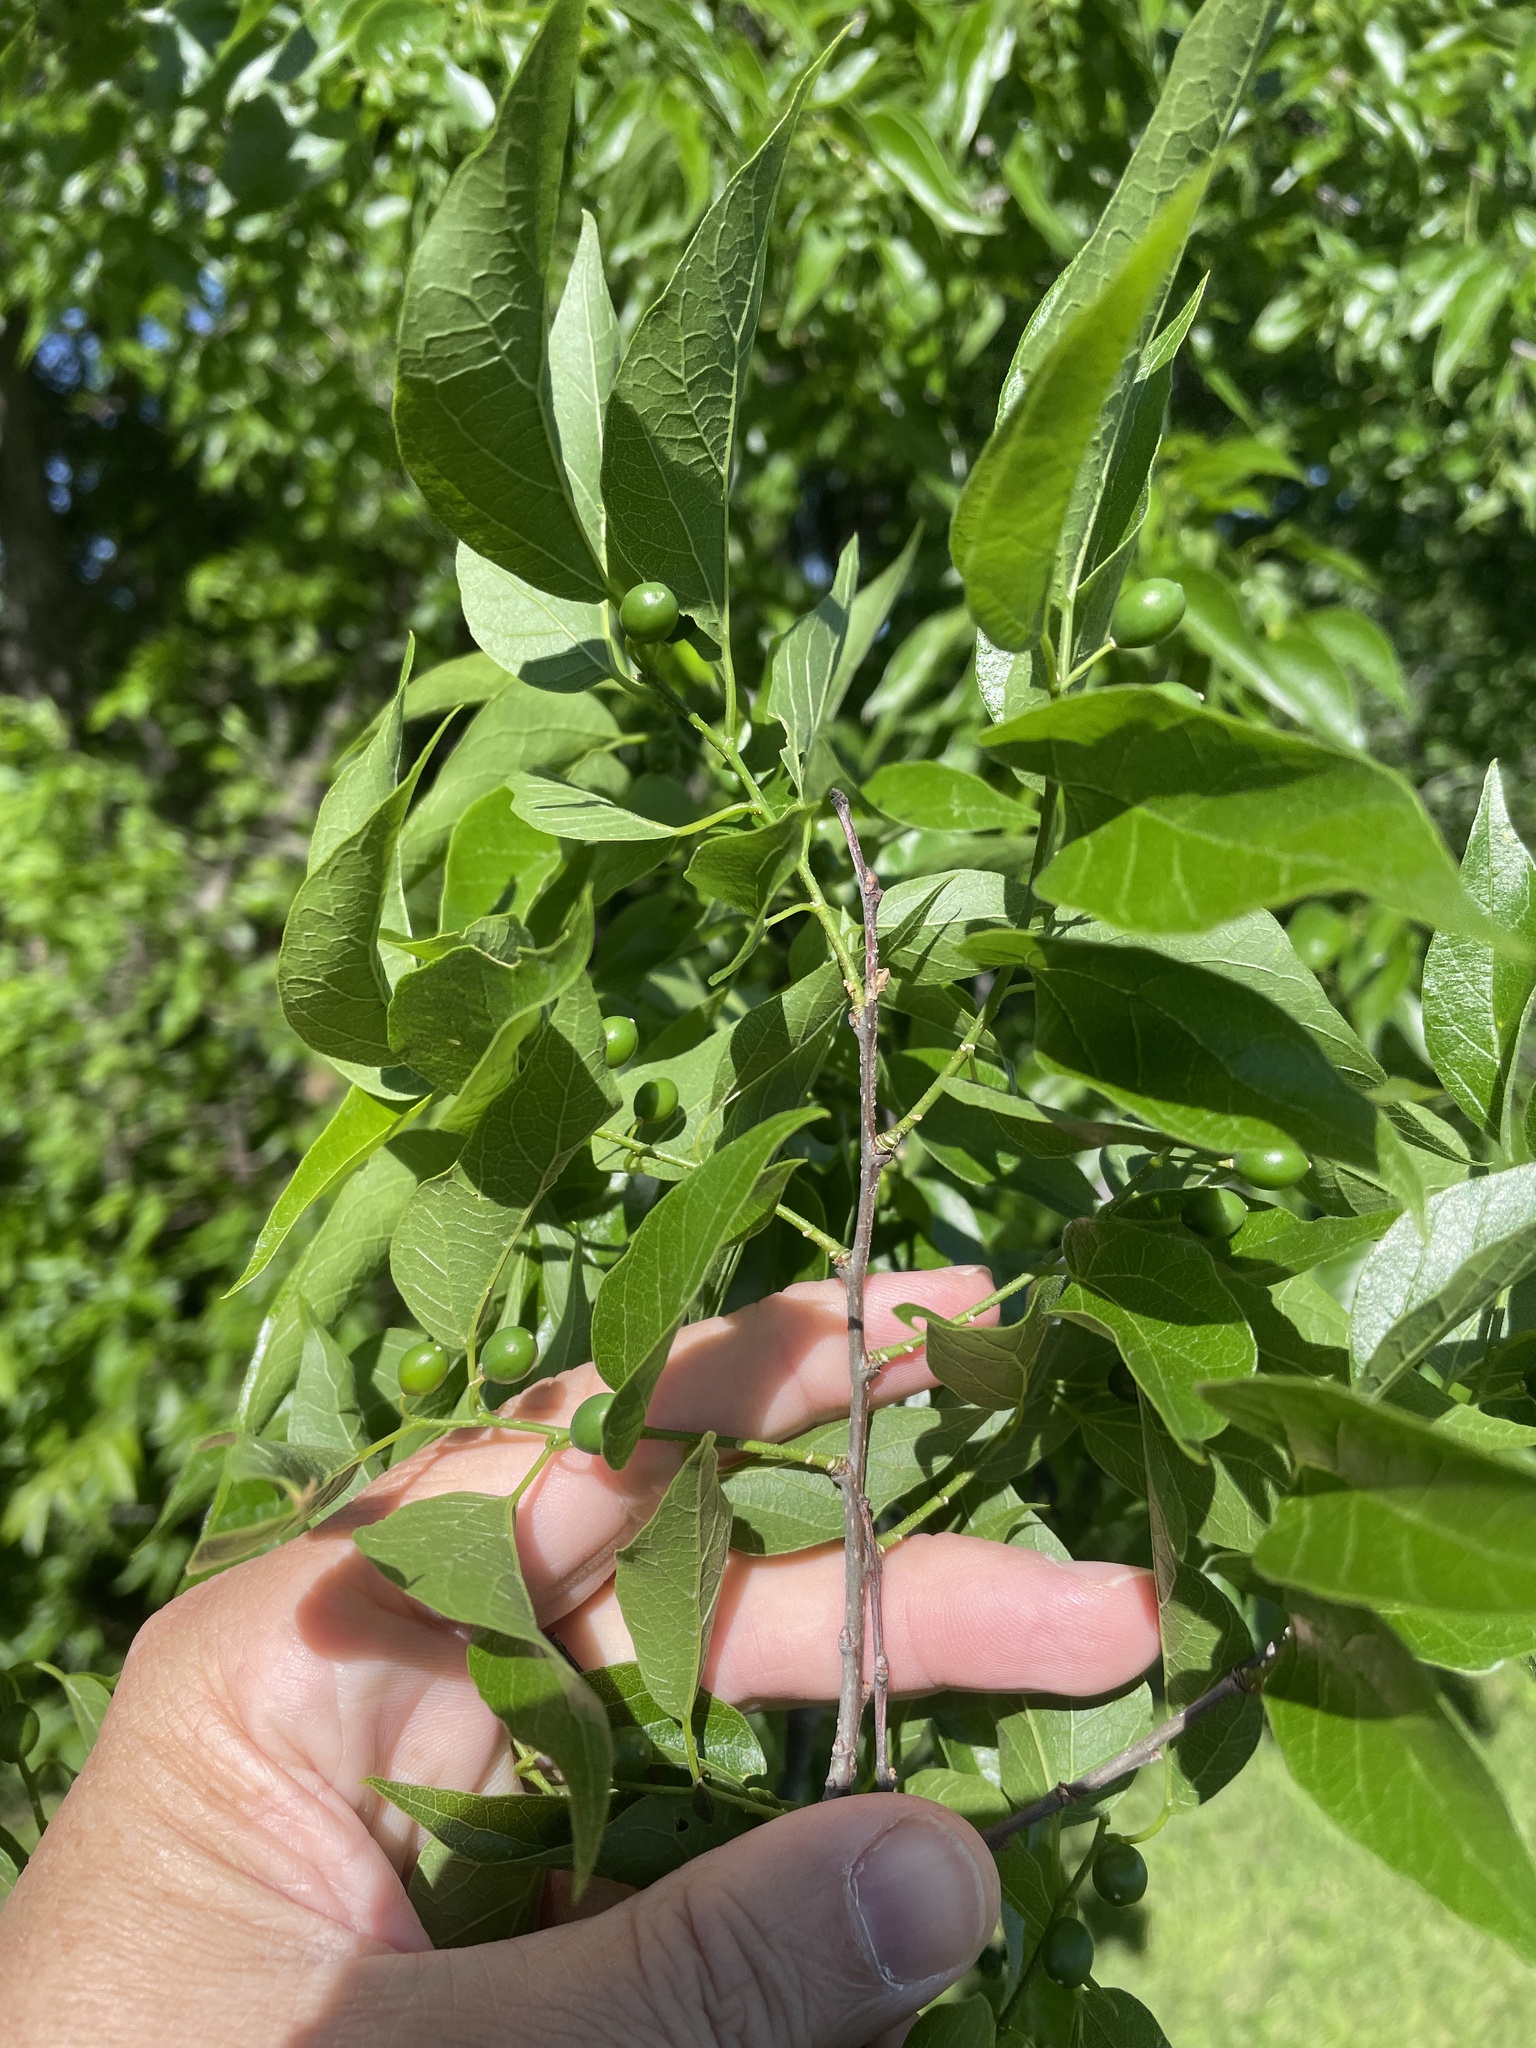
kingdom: Plantae
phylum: Tracheophyta
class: Magnoliopsida
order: Rosales
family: Cannabaceae
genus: Celtis
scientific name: Celtis laevigata
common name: Sugarberry
